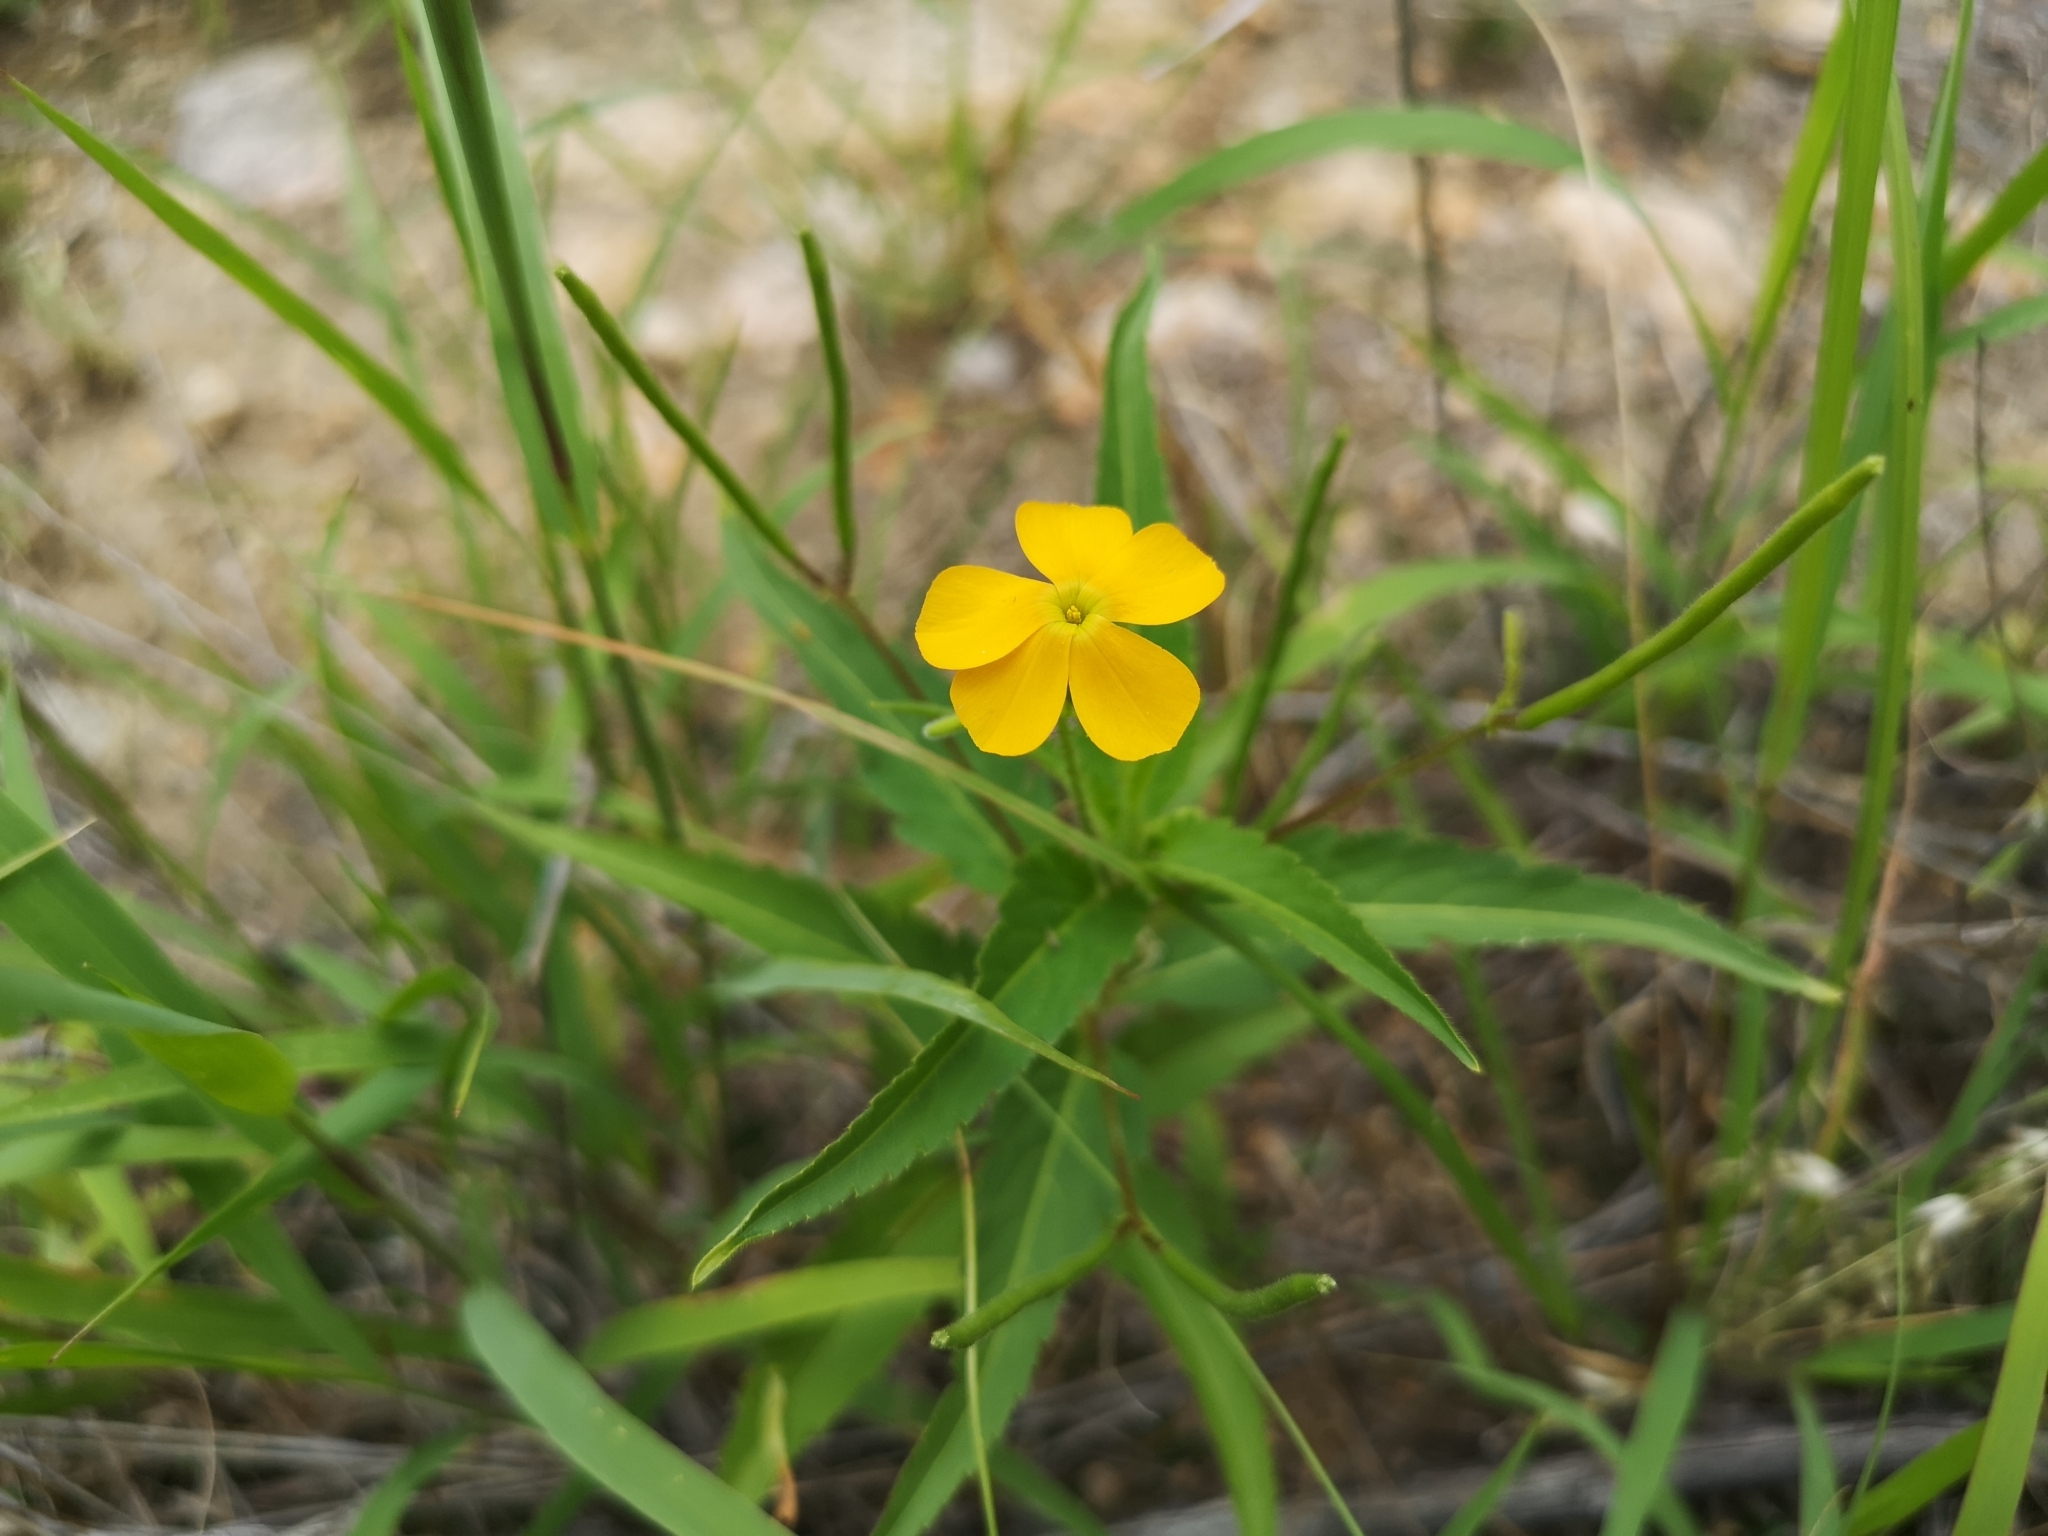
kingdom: Plantae
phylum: Tracheophyta
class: Magnoliopsida
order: Malpighiales
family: Turneraceae
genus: Tricliceras
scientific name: Tricliceras glanduliferum
